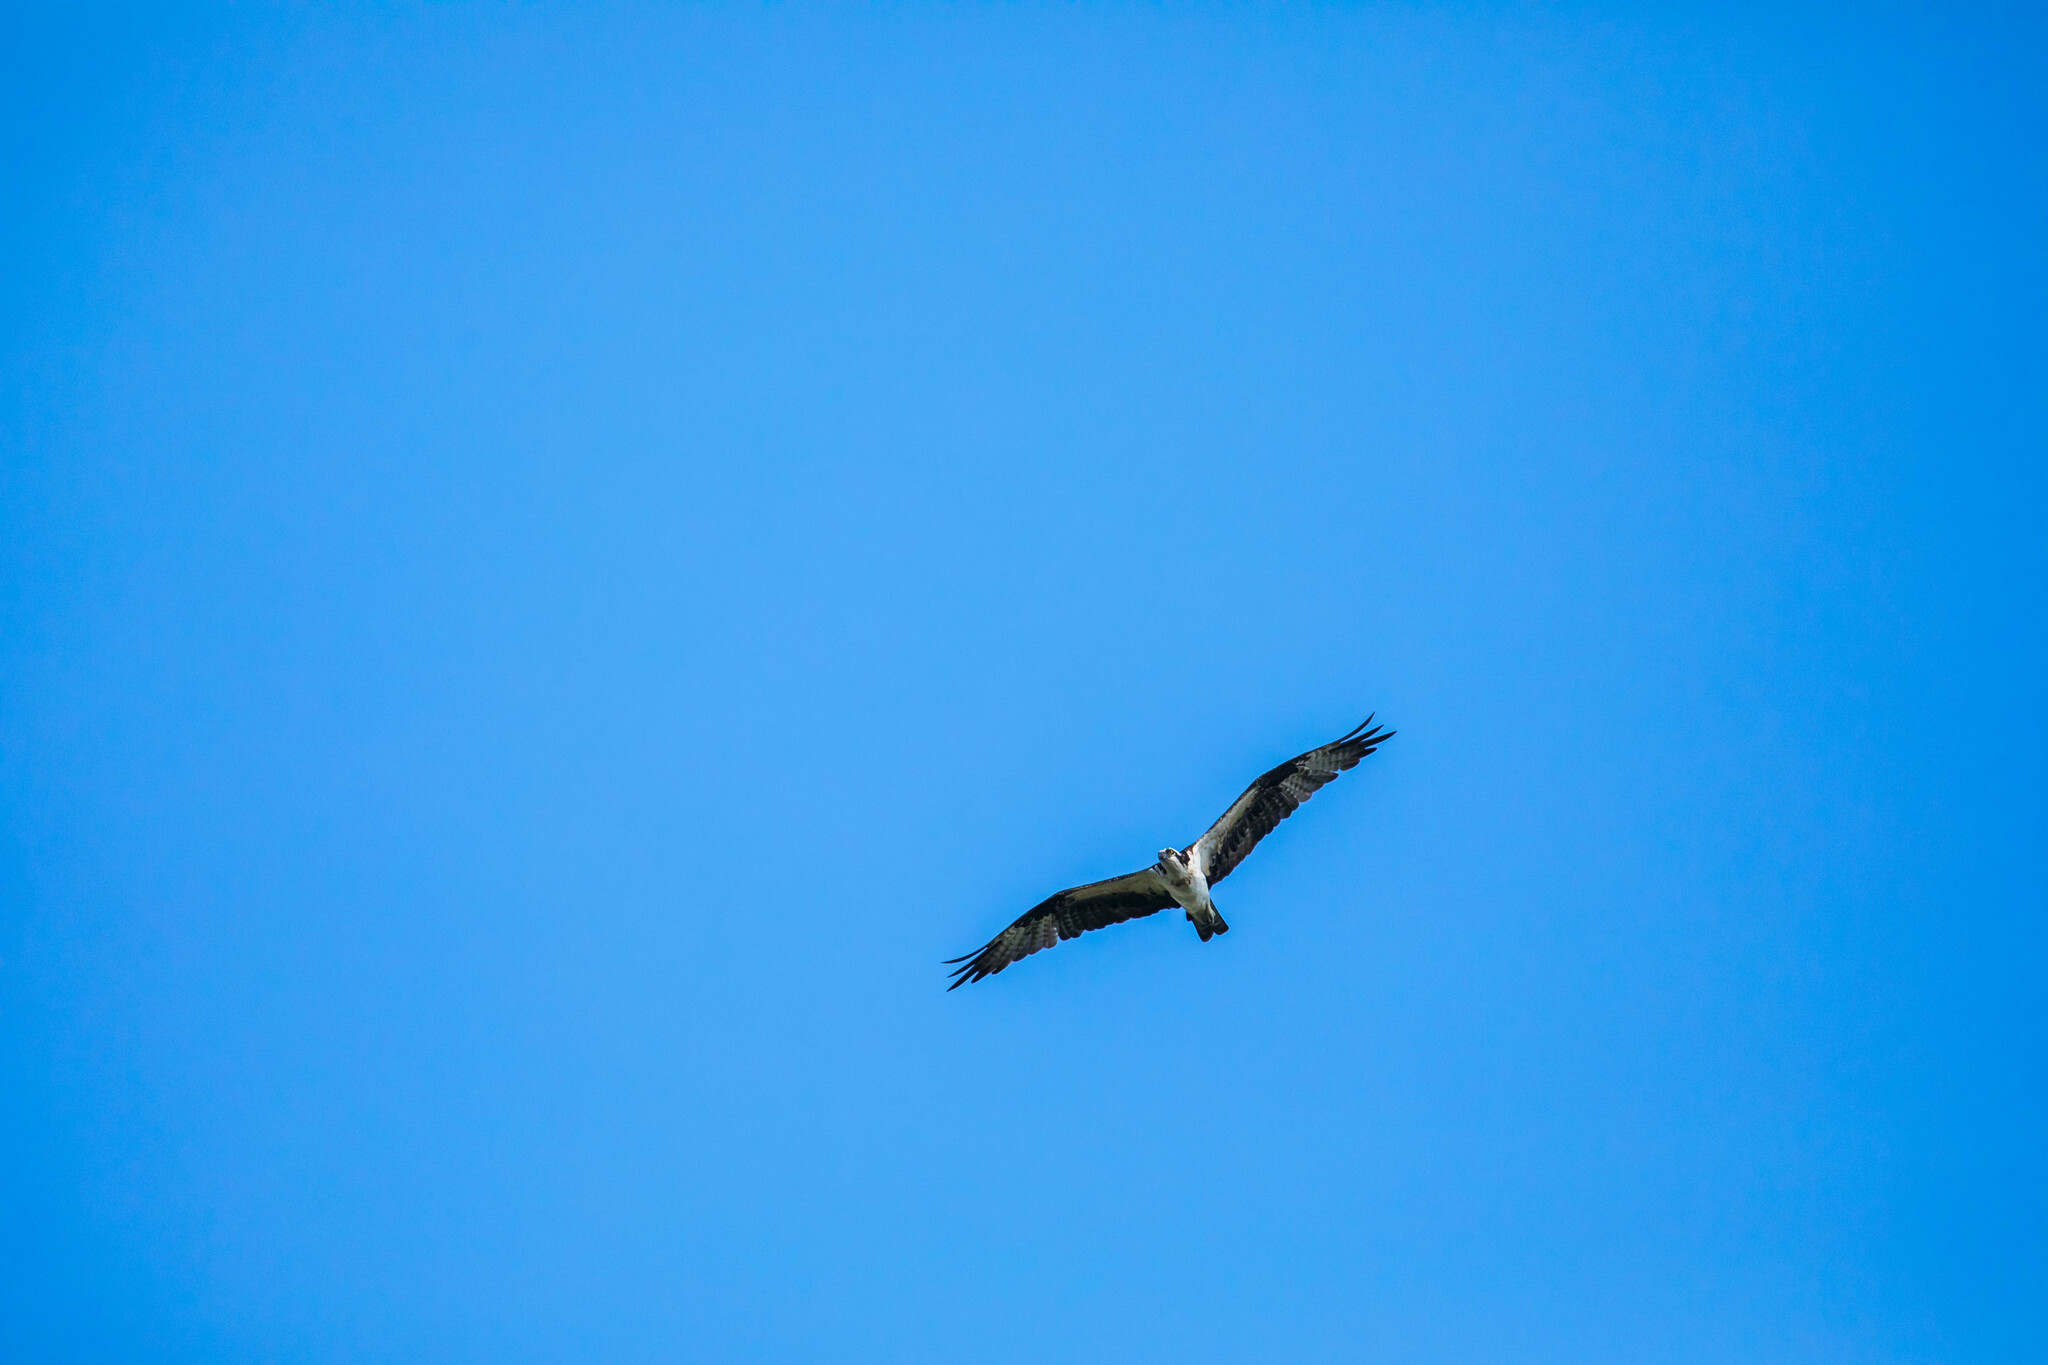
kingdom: Animalia
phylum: Chordata
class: Aves
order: Accipitriformes
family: Pandionidae
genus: Pandion
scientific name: Pandion haliaetus
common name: Osprey
